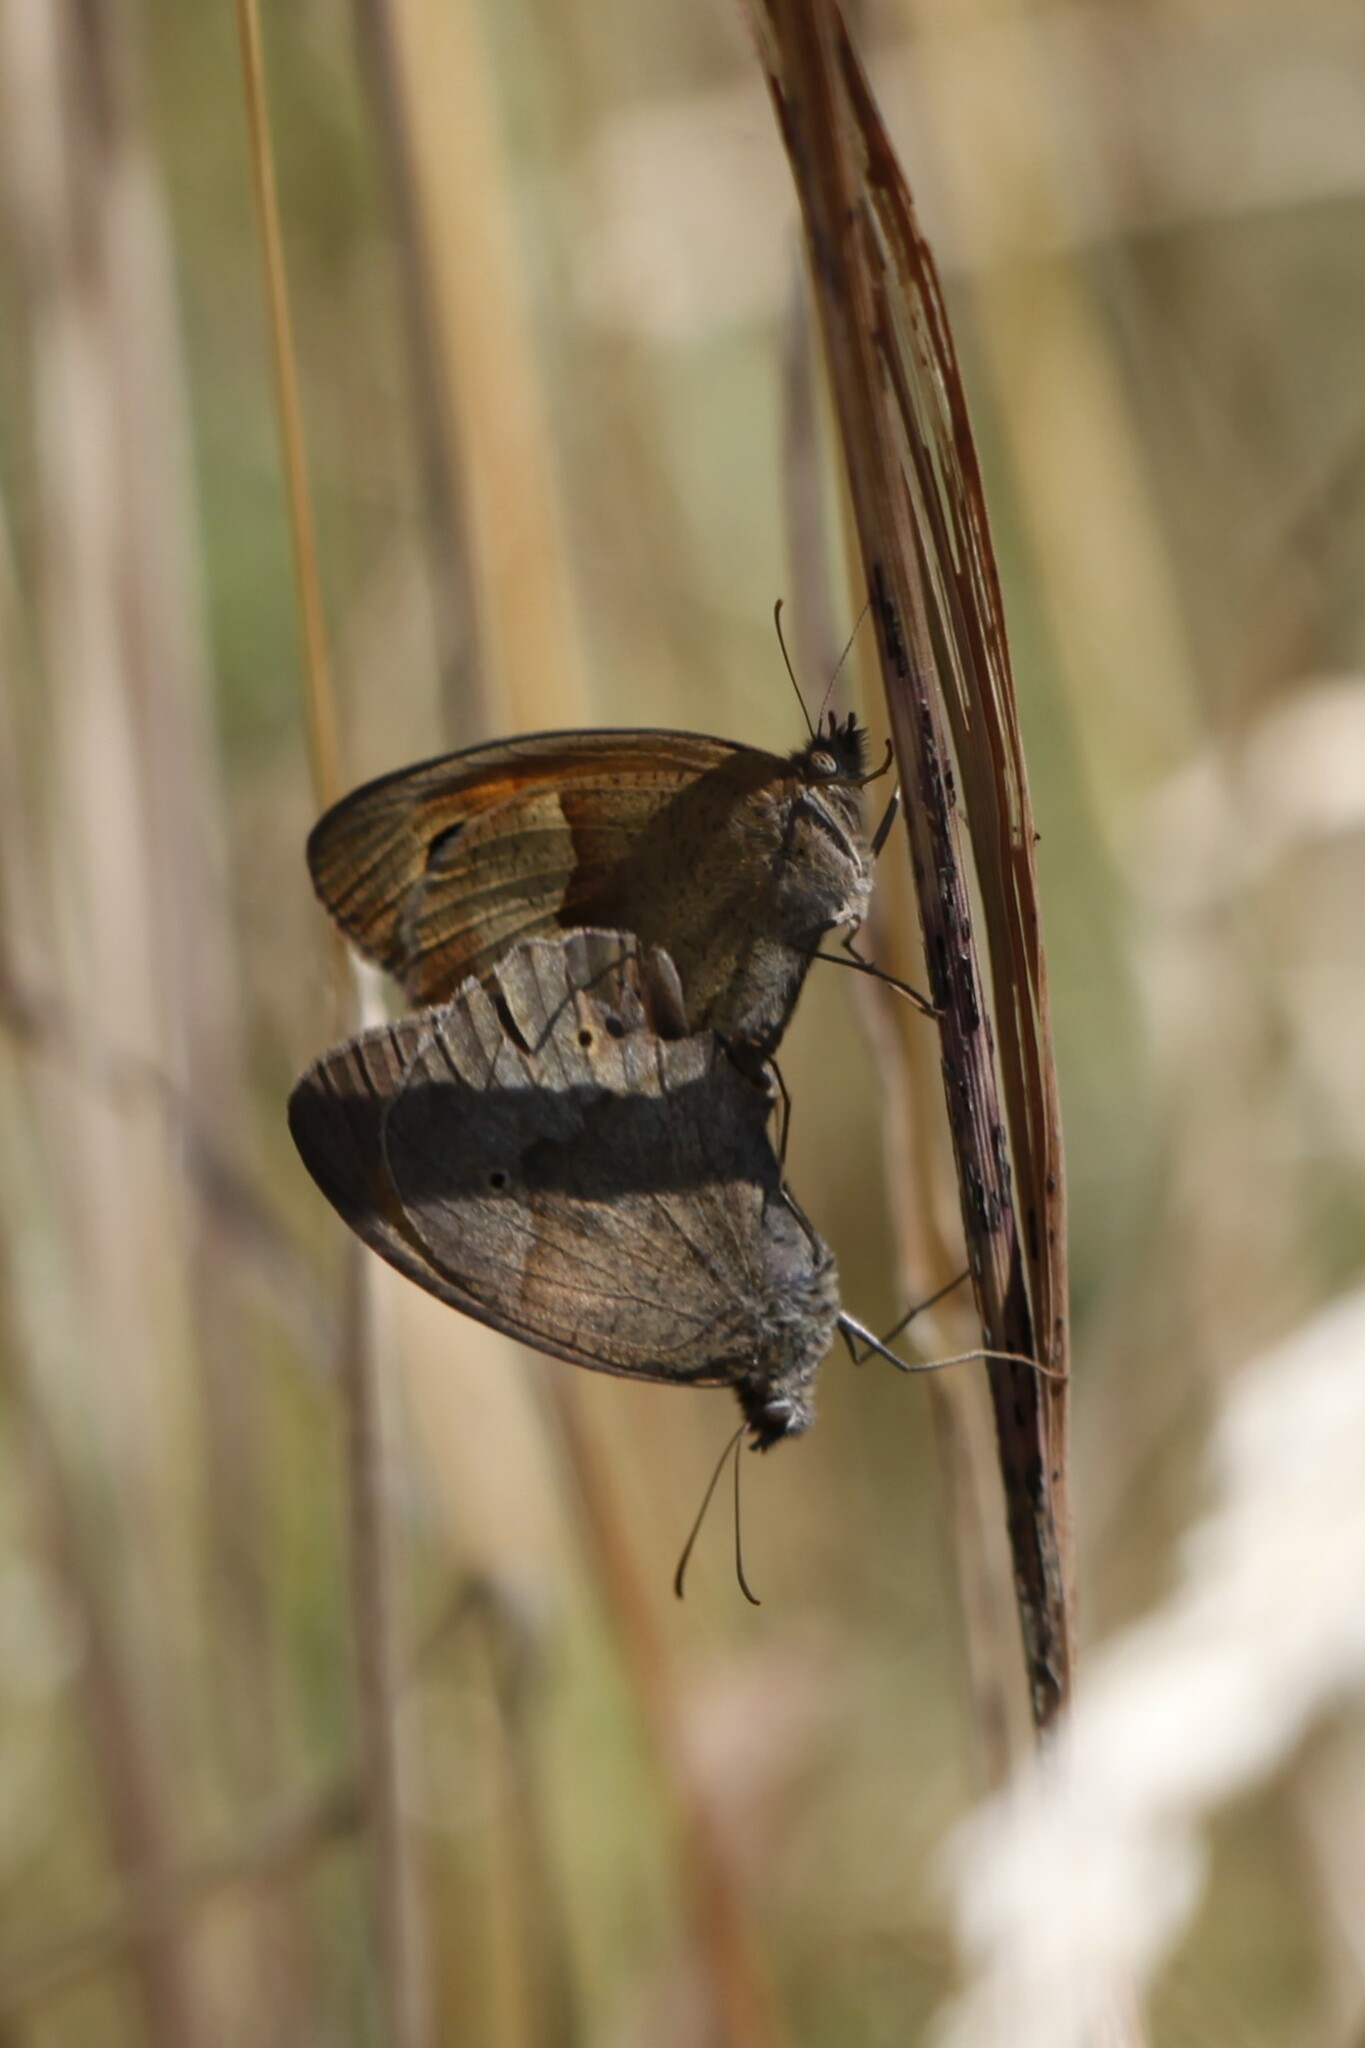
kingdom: Animalia
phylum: Arthropoda
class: Insecta
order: Lepidoptera
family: Nymphalidae
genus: Maniola
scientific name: Maniola jurtina
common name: Meadow brown
